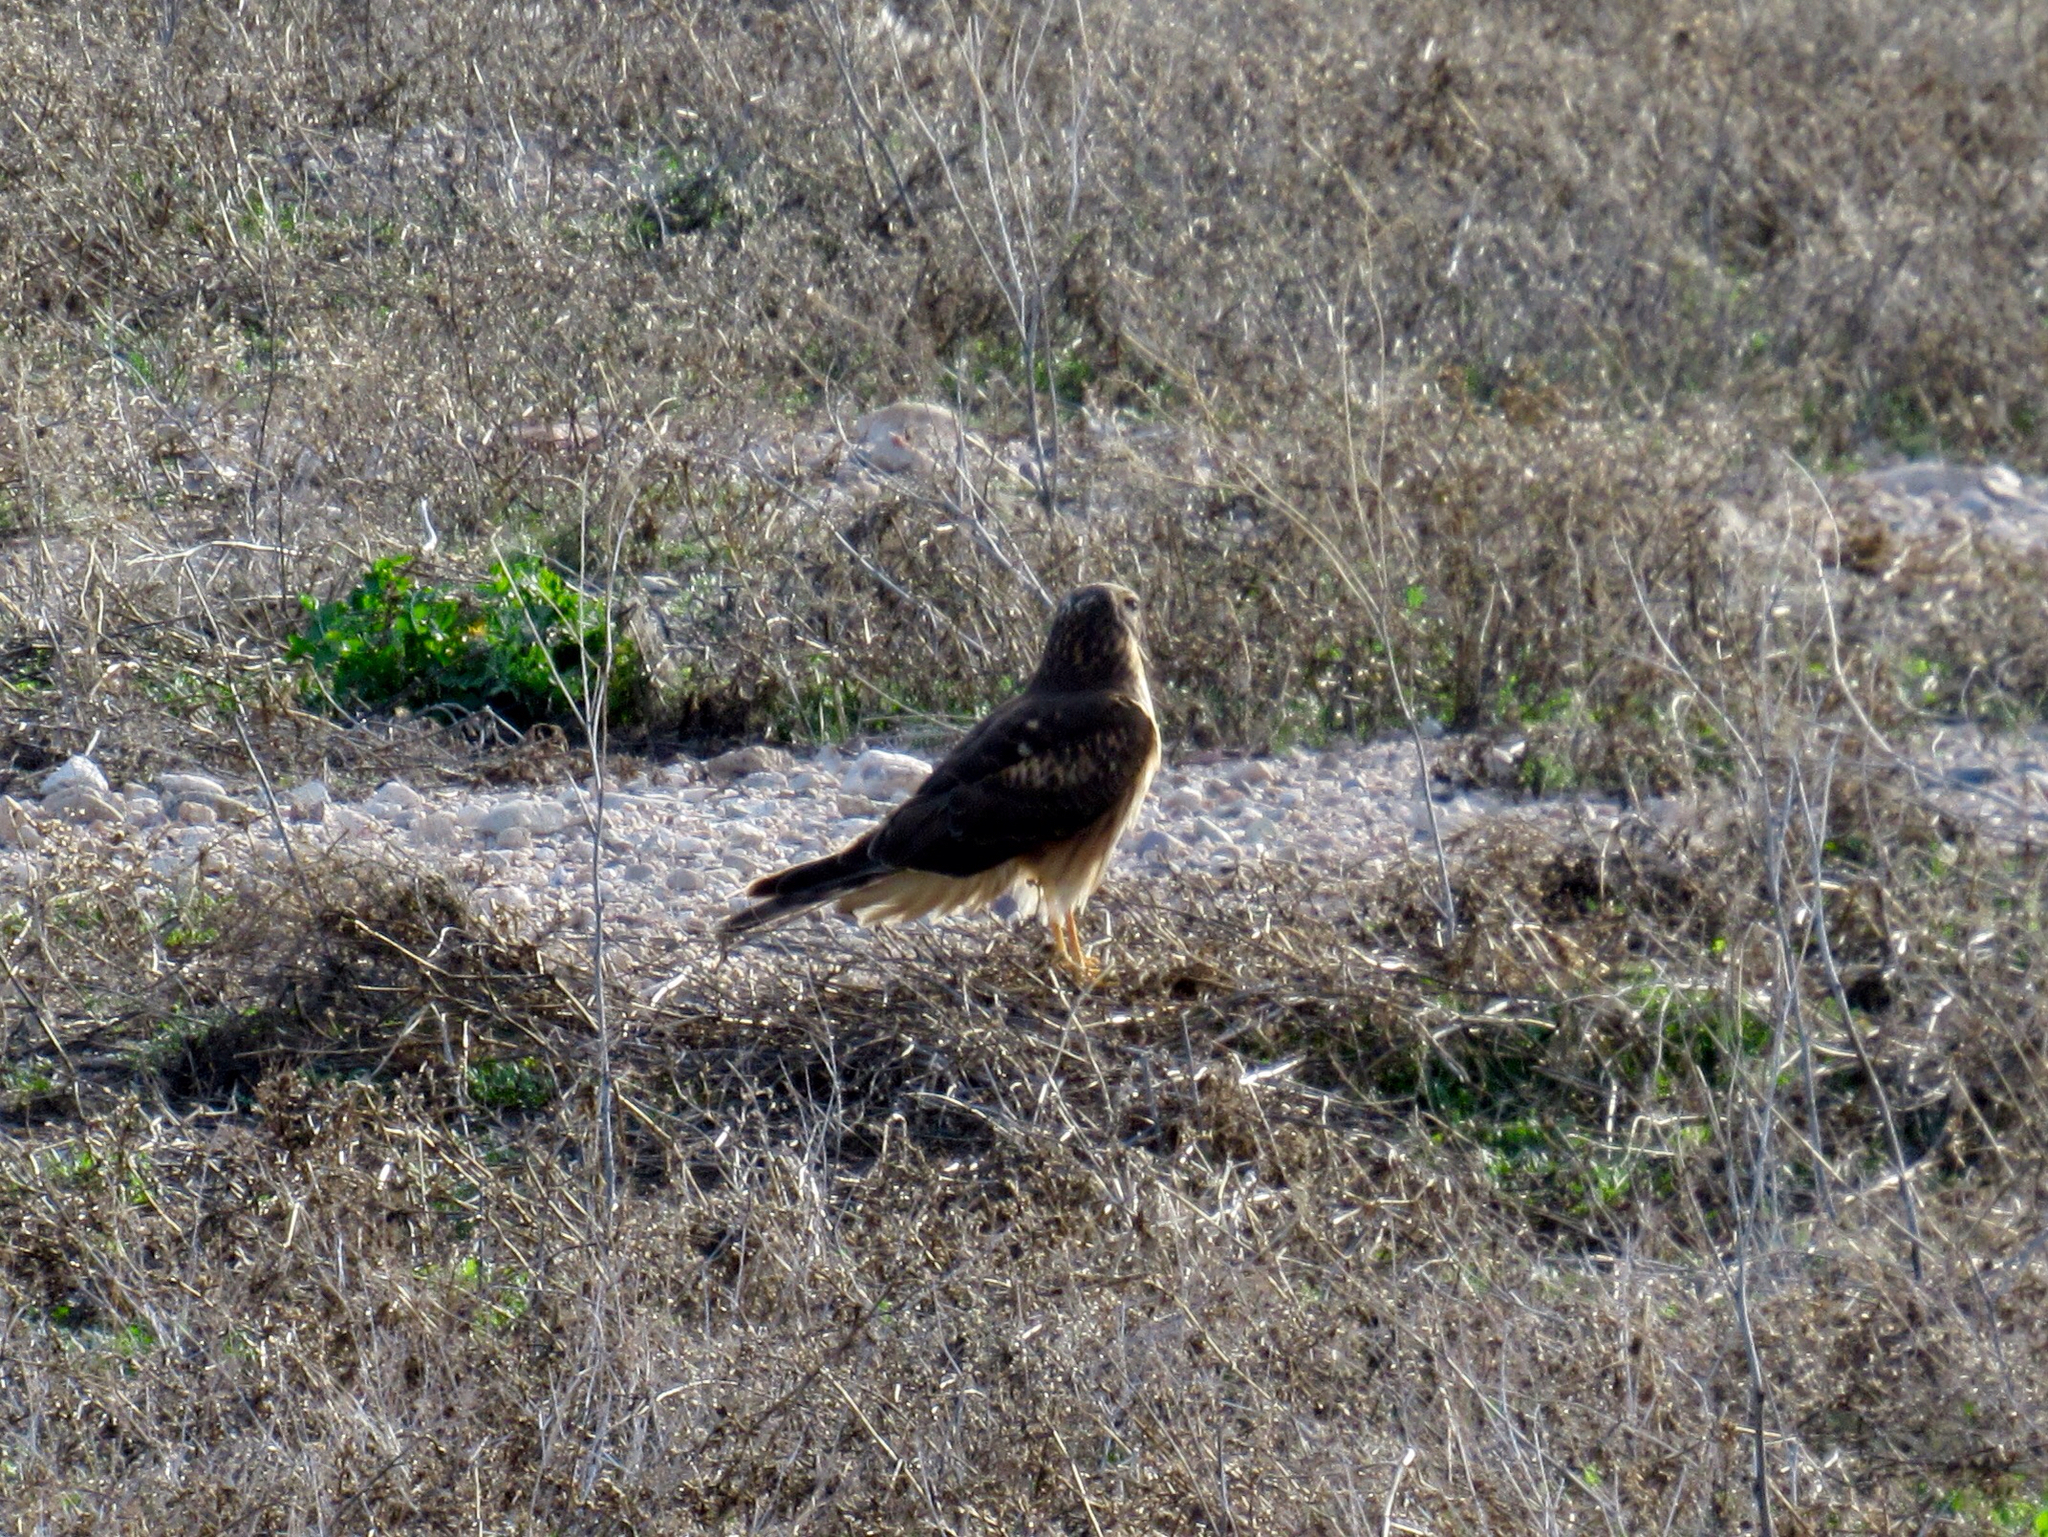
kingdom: Animalia
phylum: Chordata
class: Aves
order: Accipitriformes
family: Accipitridae
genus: Circus
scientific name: Circus cyaneus
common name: Hen harrier
